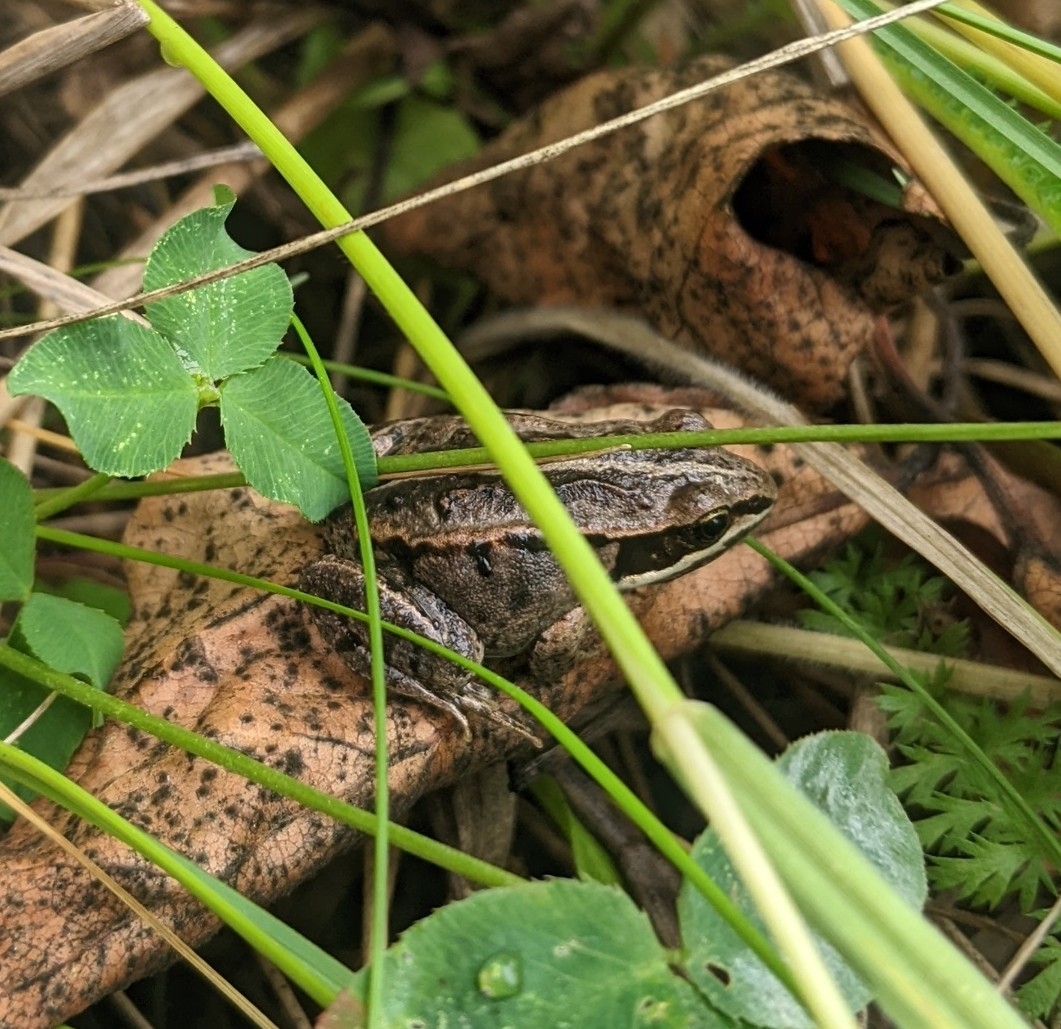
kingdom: Animalia
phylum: Chordata
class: Amphibia
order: Anura
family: Ranidae
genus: Lithobates
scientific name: Lithobates sylvaticus
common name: Wood frog
